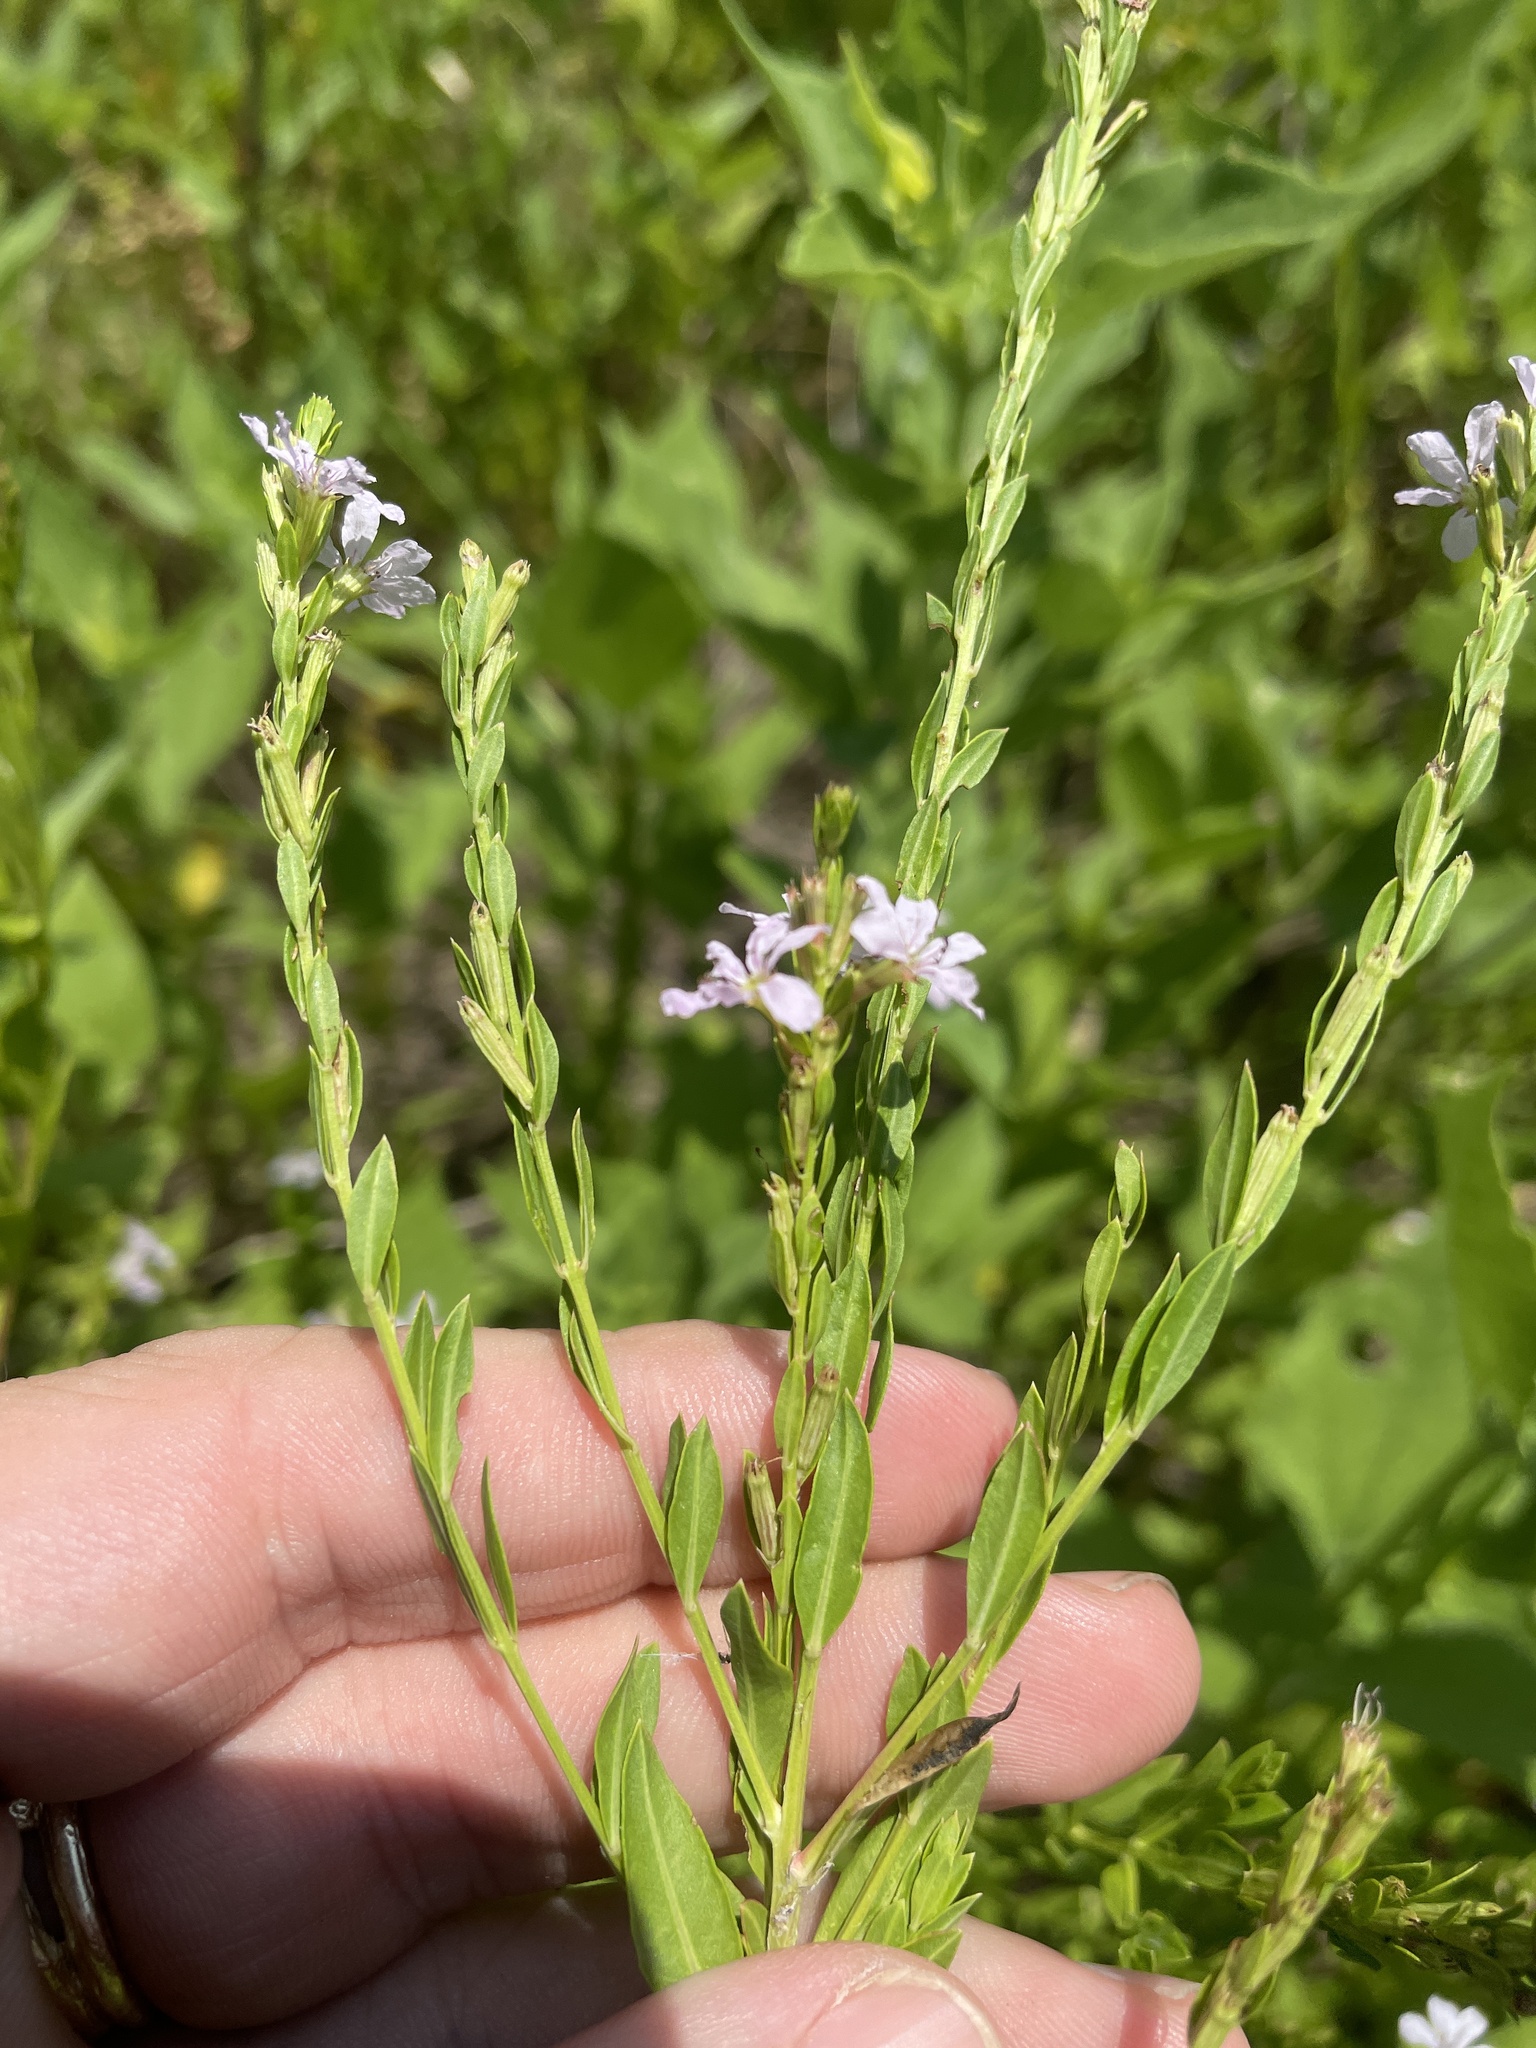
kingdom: Plantae
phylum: Tracheophyta
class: Magnoliopsida
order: Myrtales
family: Lythraceae
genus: Lythrum
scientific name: Lythrum alatum
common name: Winged loosestrife
